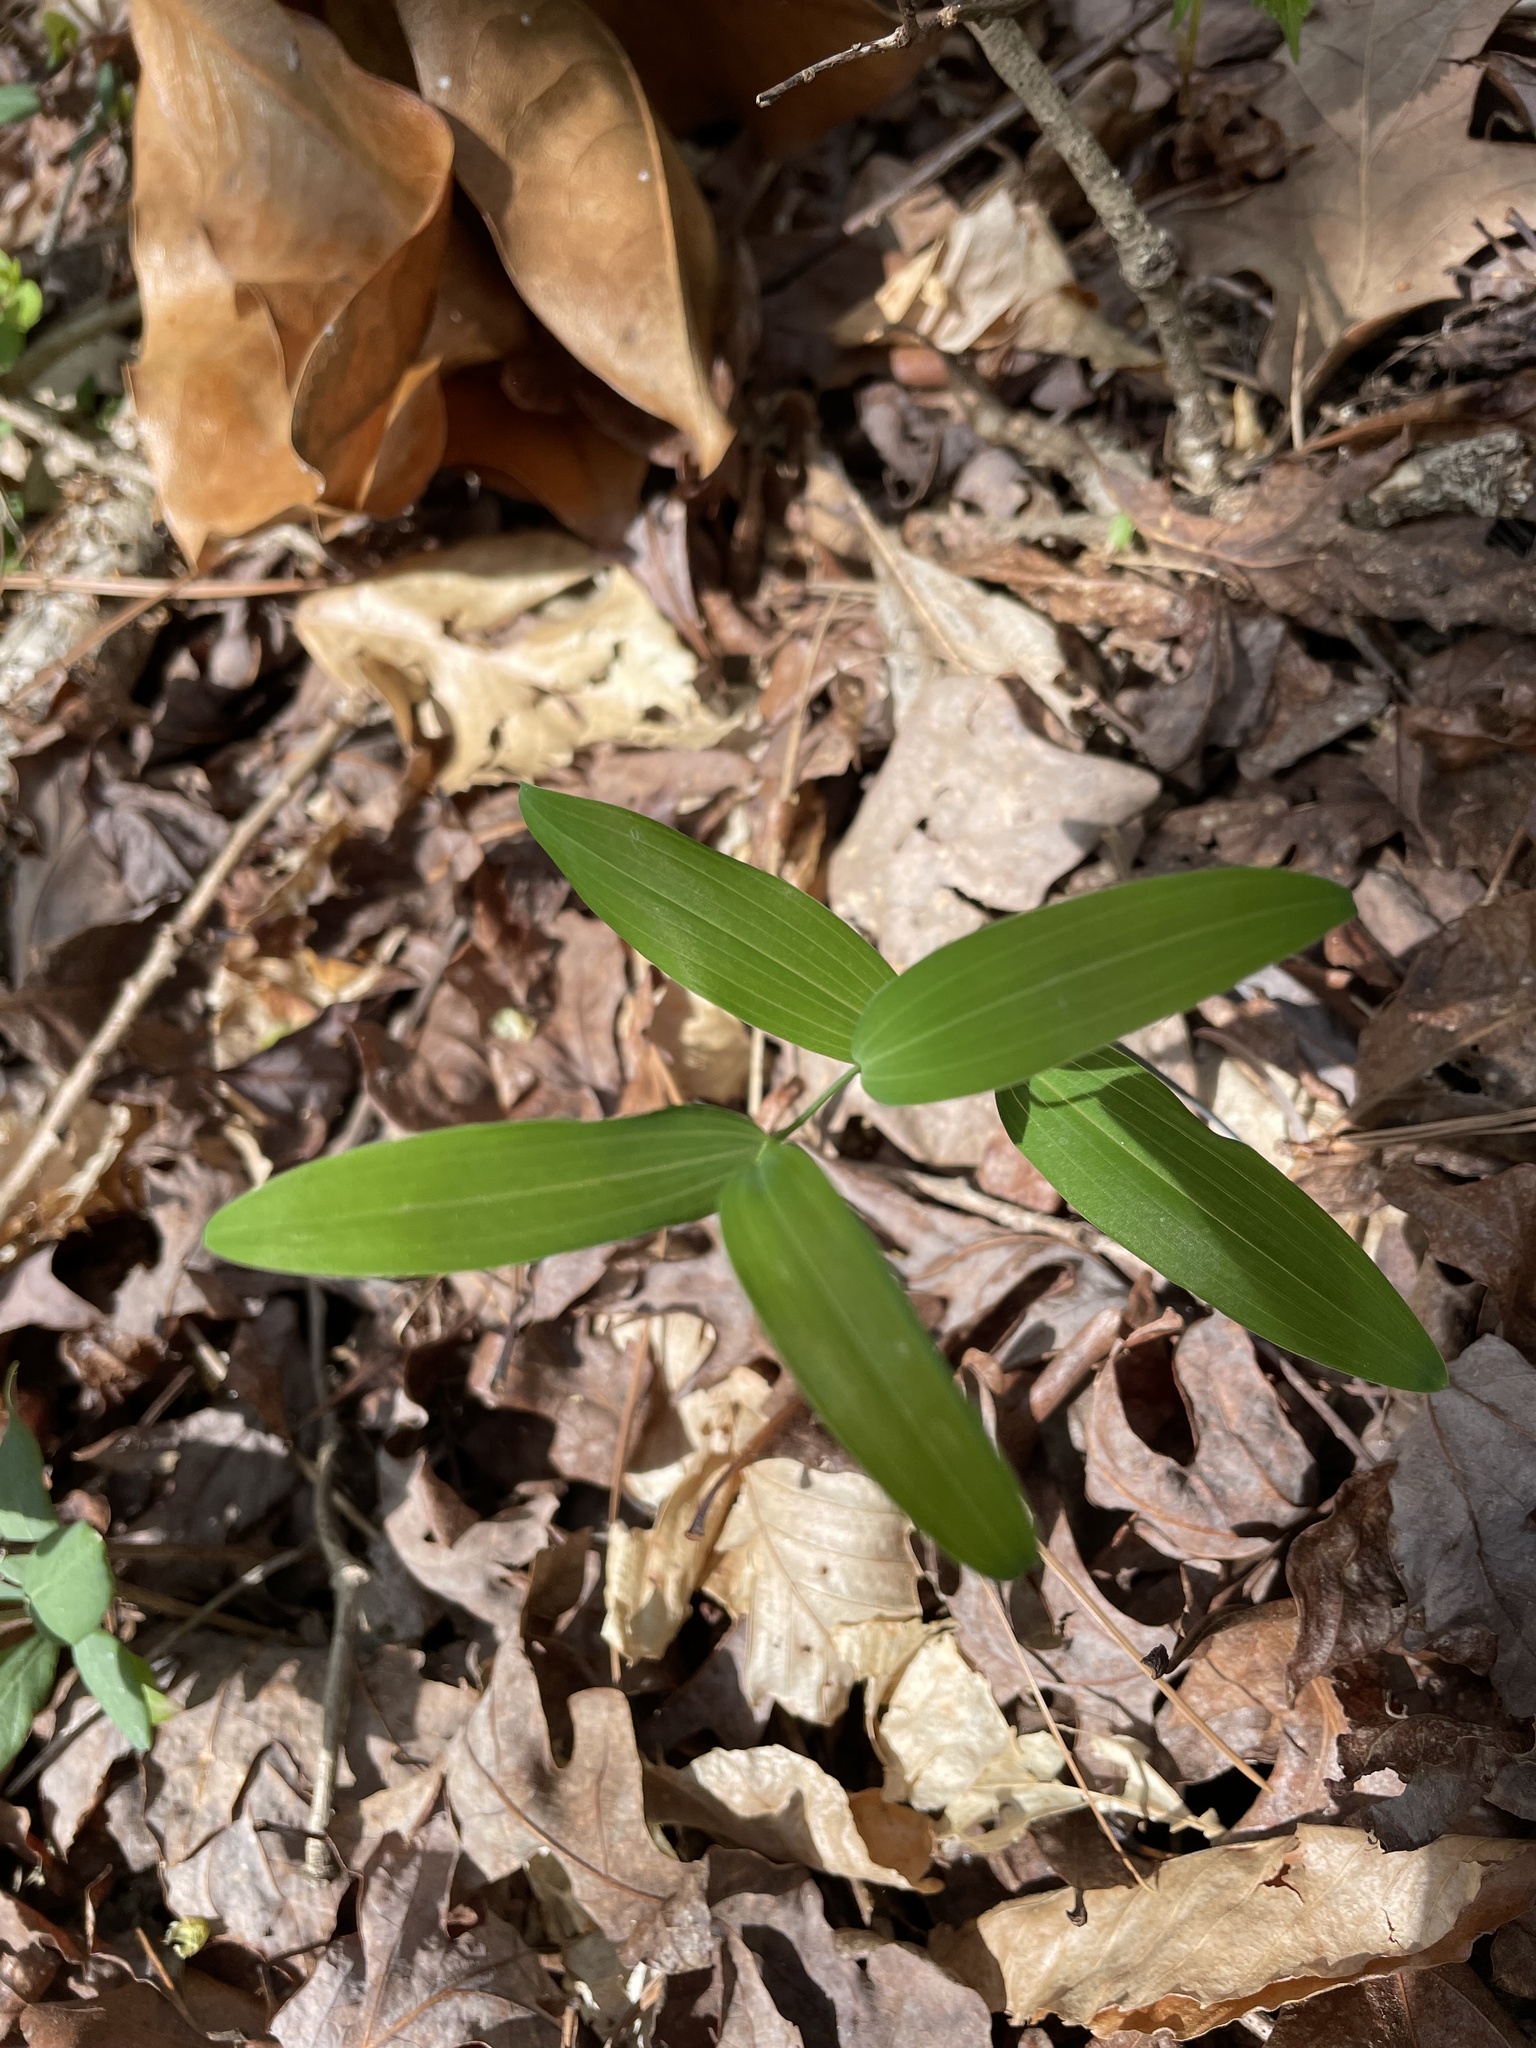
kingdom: Plantae
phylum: Tracheophyta
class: Liliopsida
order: Asparagales
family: Asparagaceae
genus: Polygonatum
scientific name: Polygonatum biflorum
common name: American solomon's-seal
